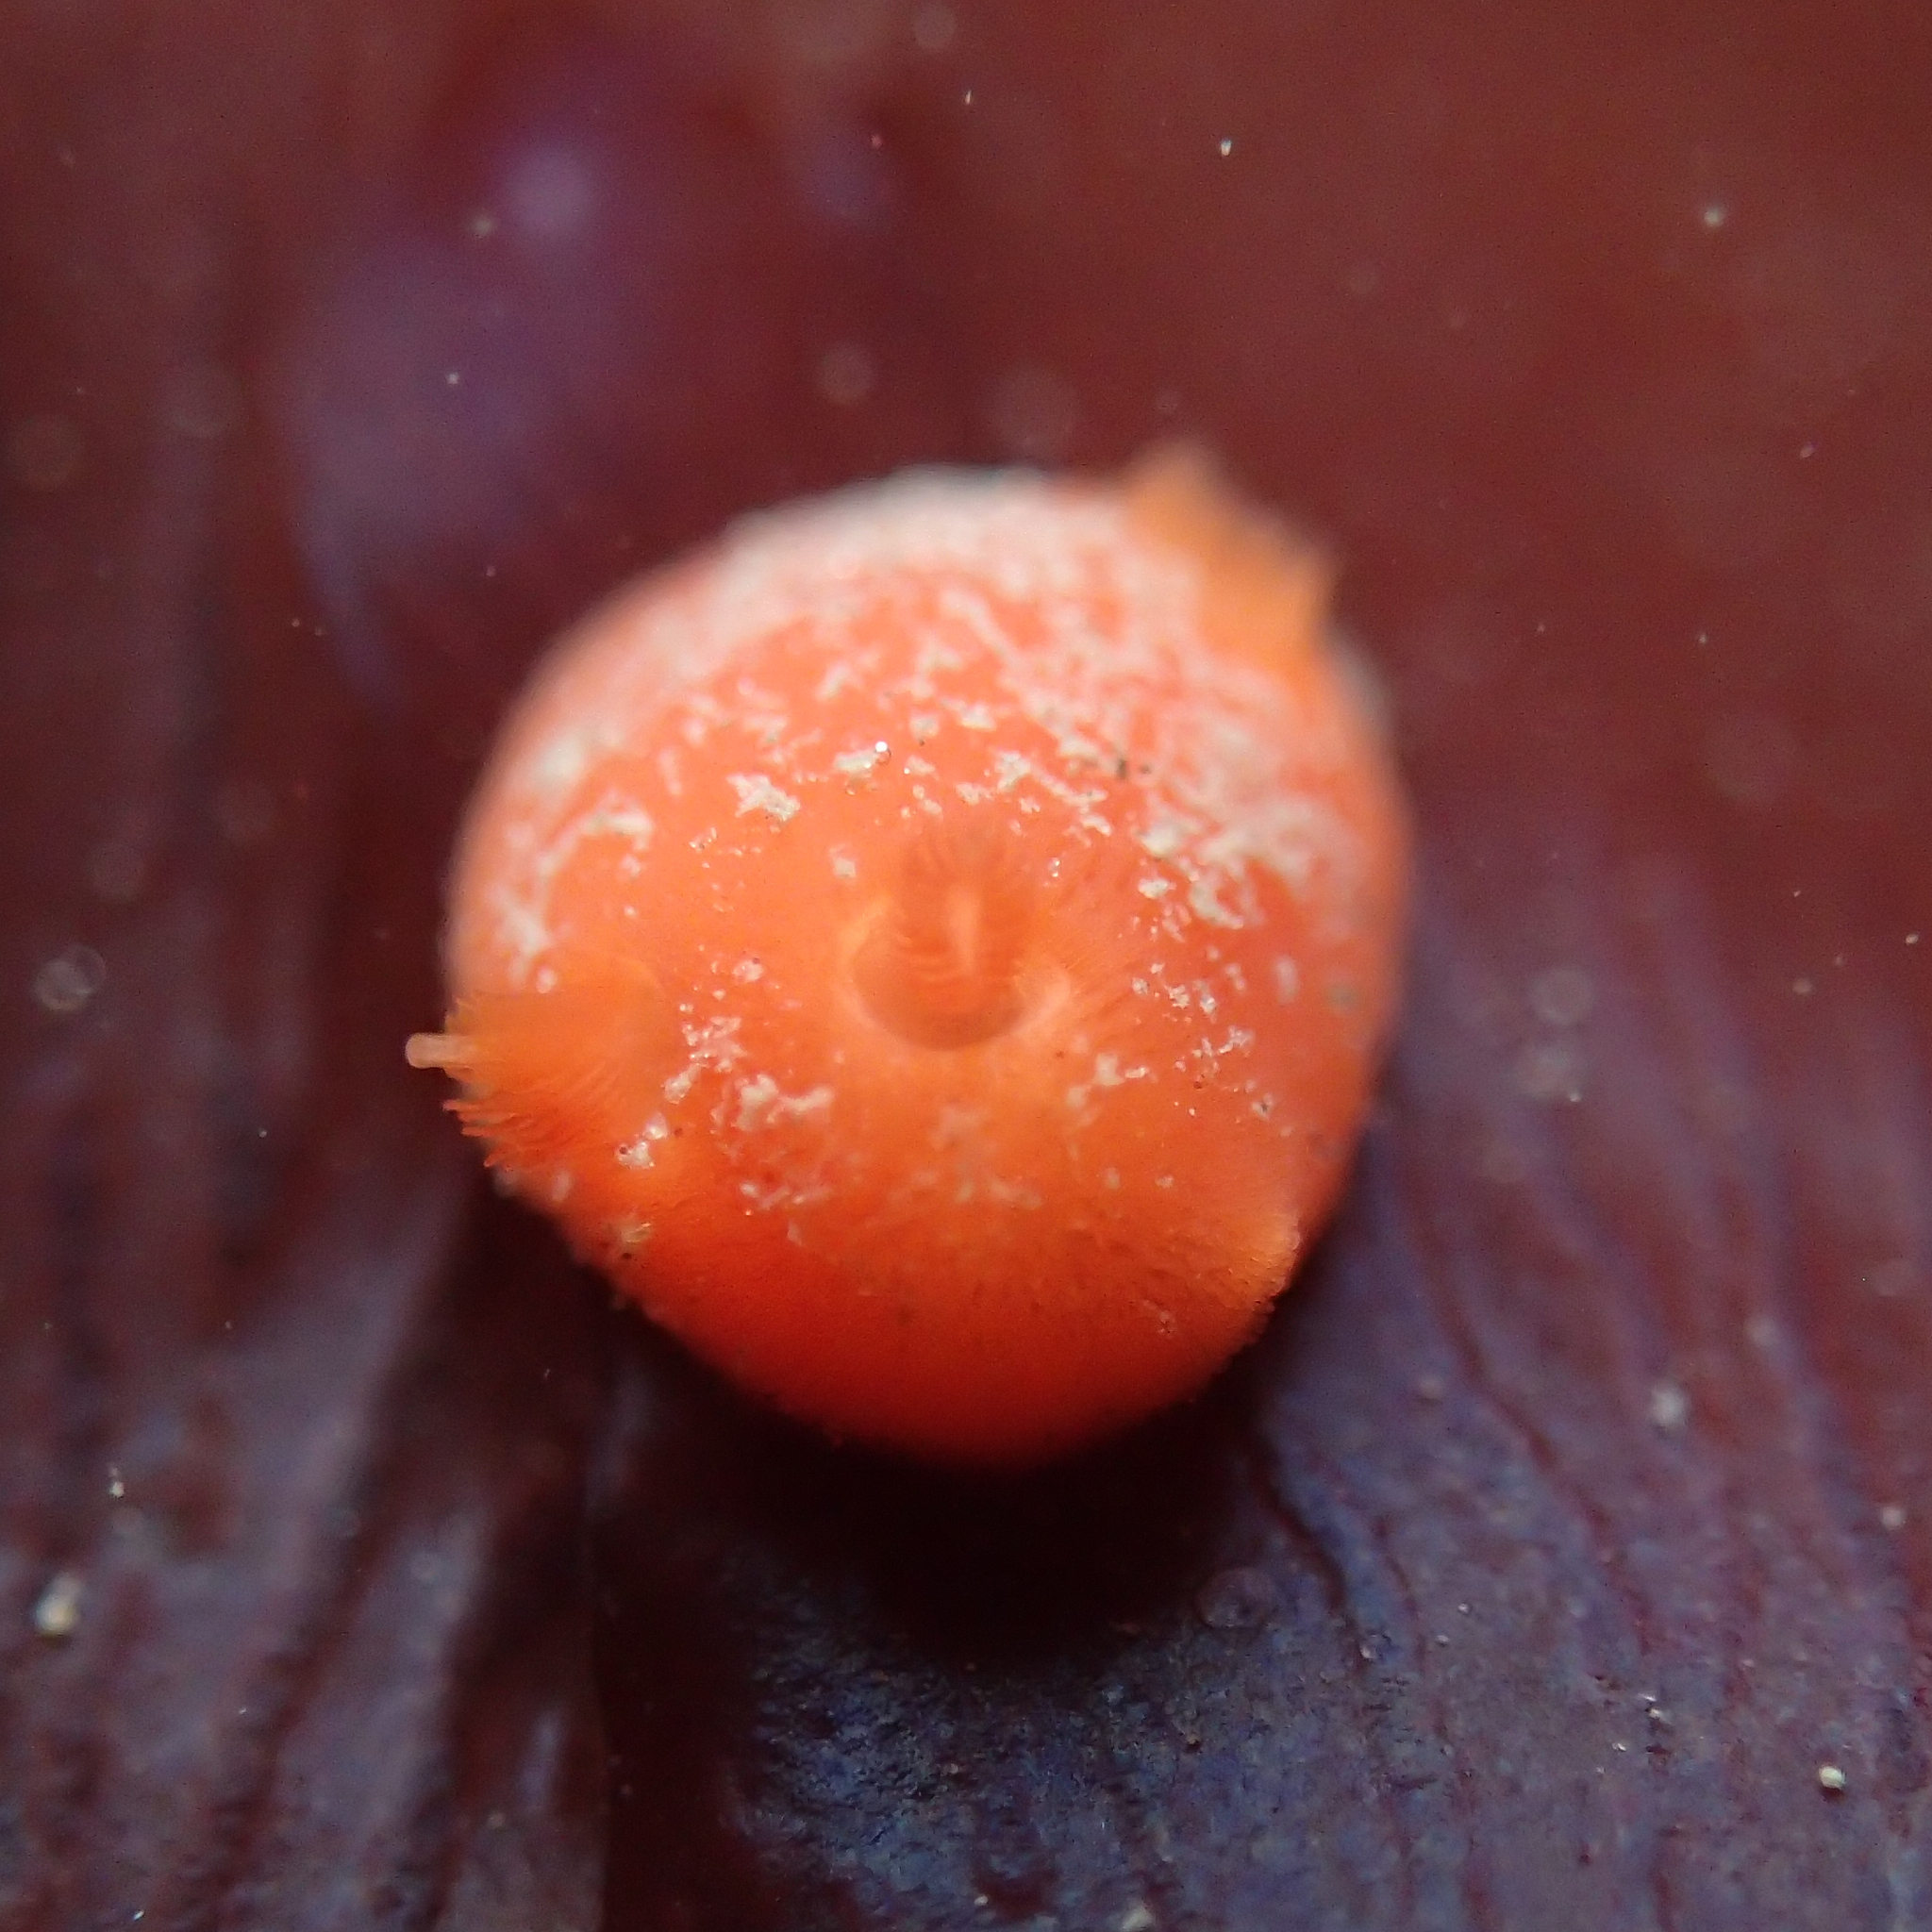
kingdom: Animalia
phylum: Mollusca
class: Gastropoda
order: Nudibranchia
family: Discodorididae
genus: Rostanga
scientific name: Rostanga pulchra
